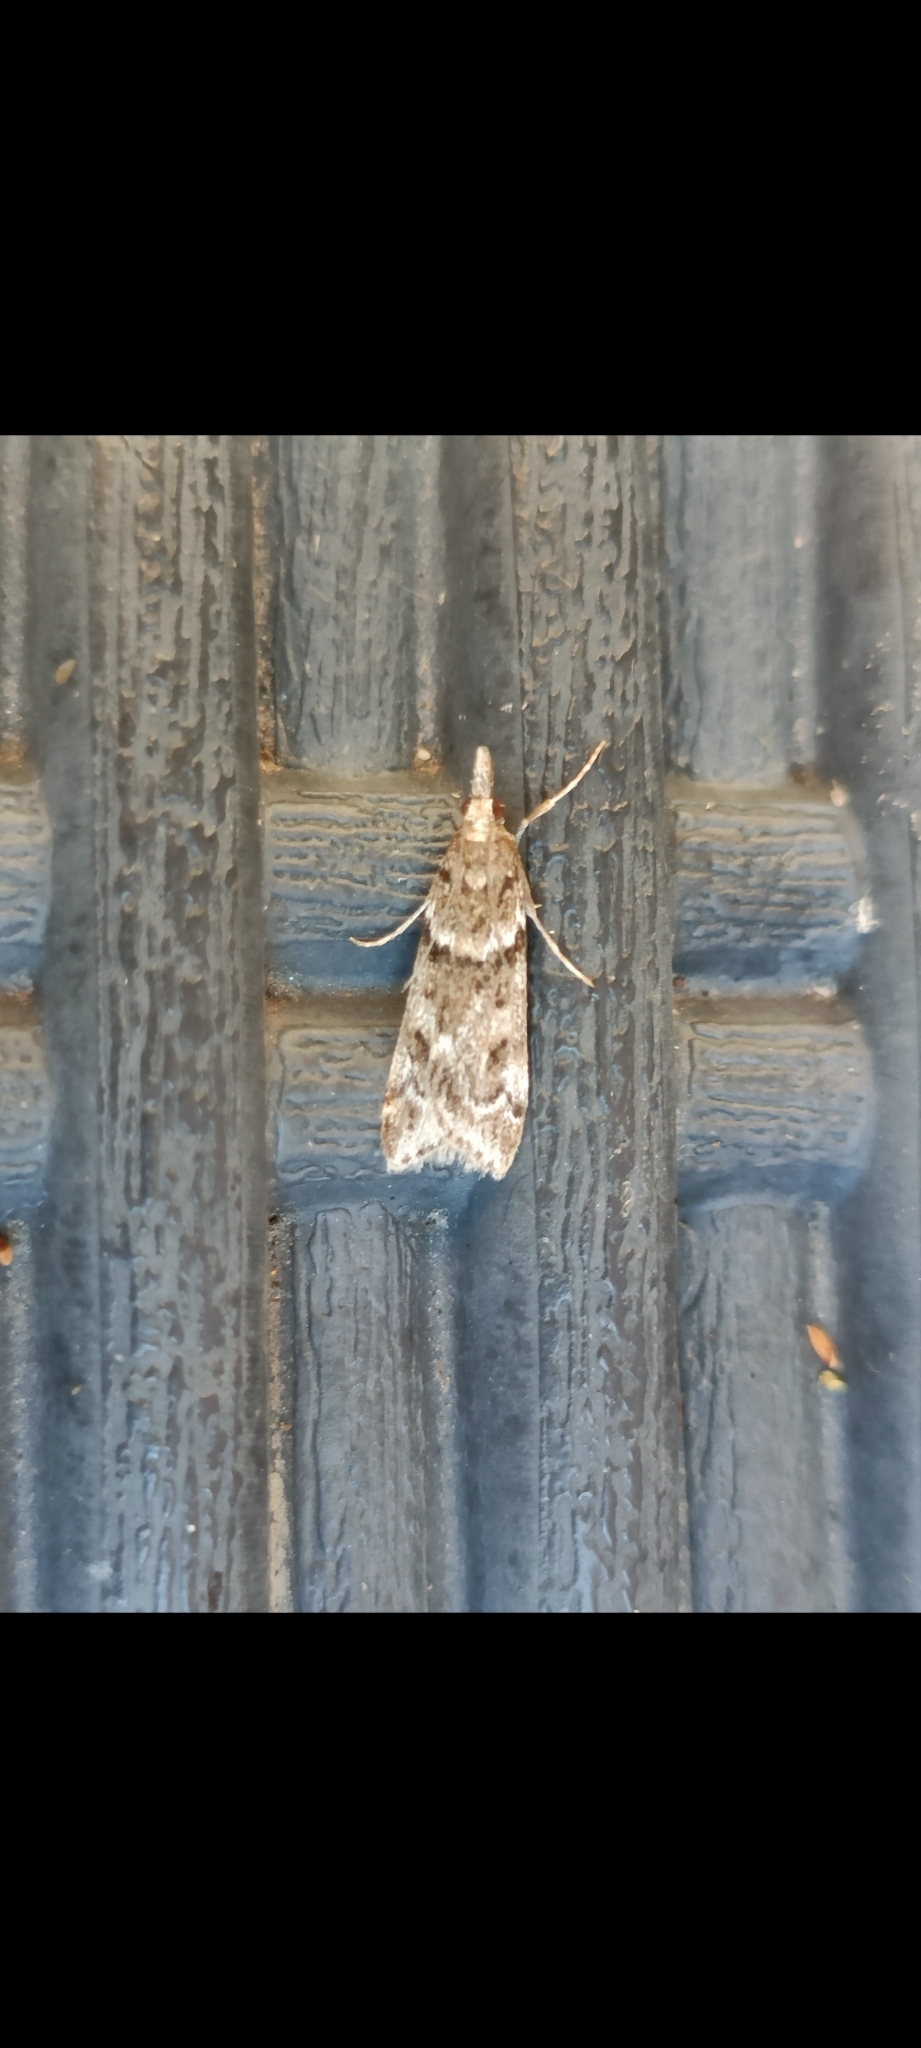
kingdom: Animalia
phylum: Arthropoda
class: Insecta
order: Lepidoptera
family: Crambidae
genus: Eudonia
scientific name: Eudonia angustea
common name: Narrow-winged grey
